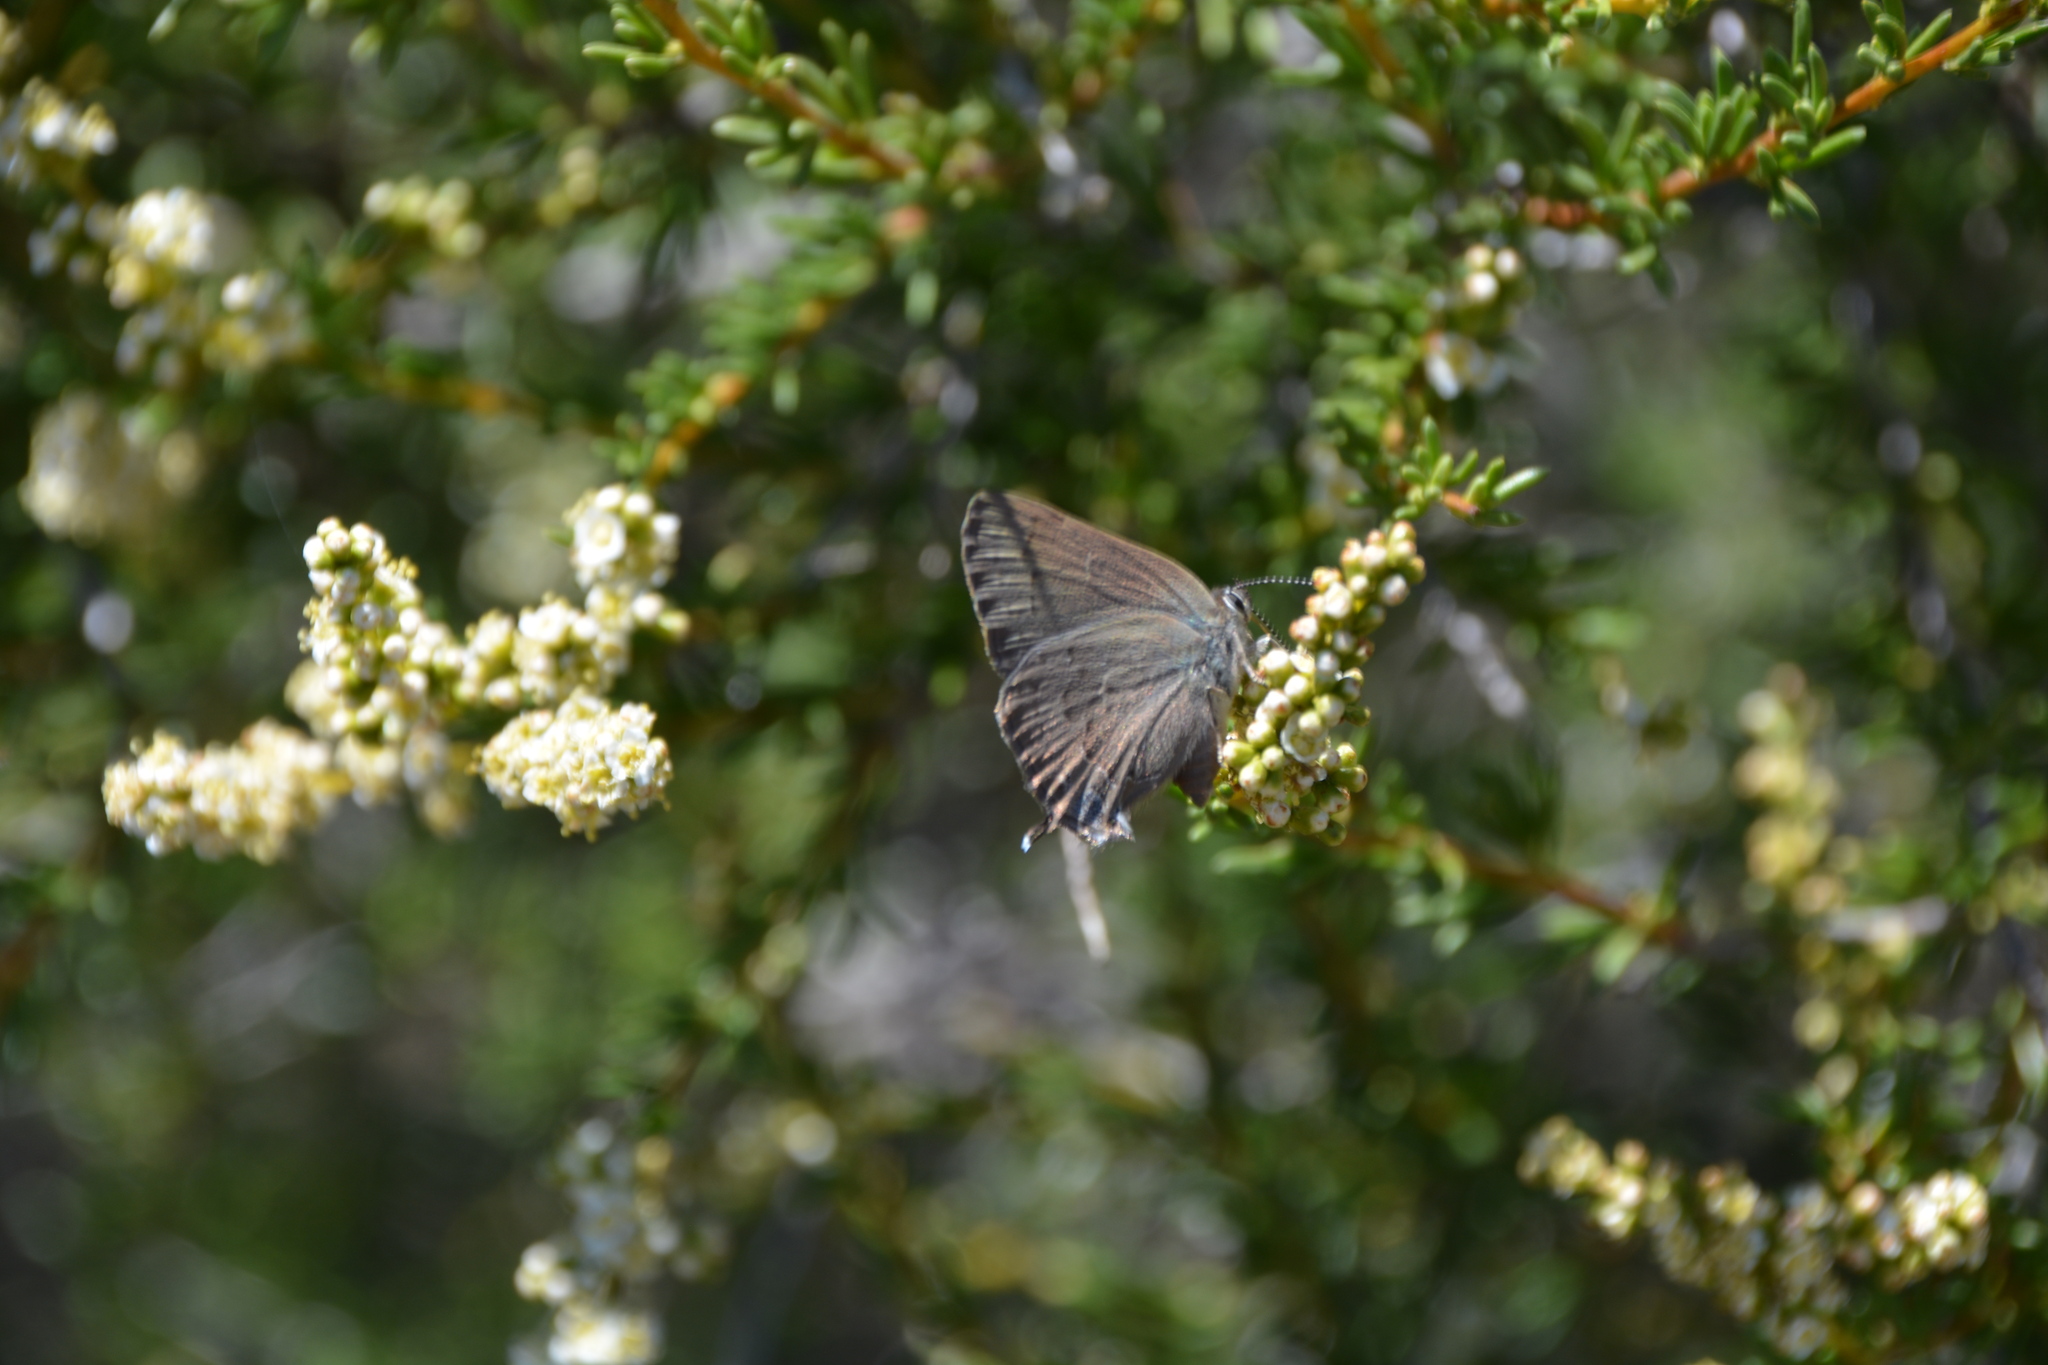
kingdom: Animalia
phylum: Arthropoda
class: Insecta
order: Lepidoptera
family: Lycaenidae
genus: Strymon
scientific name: Strymon saepium
